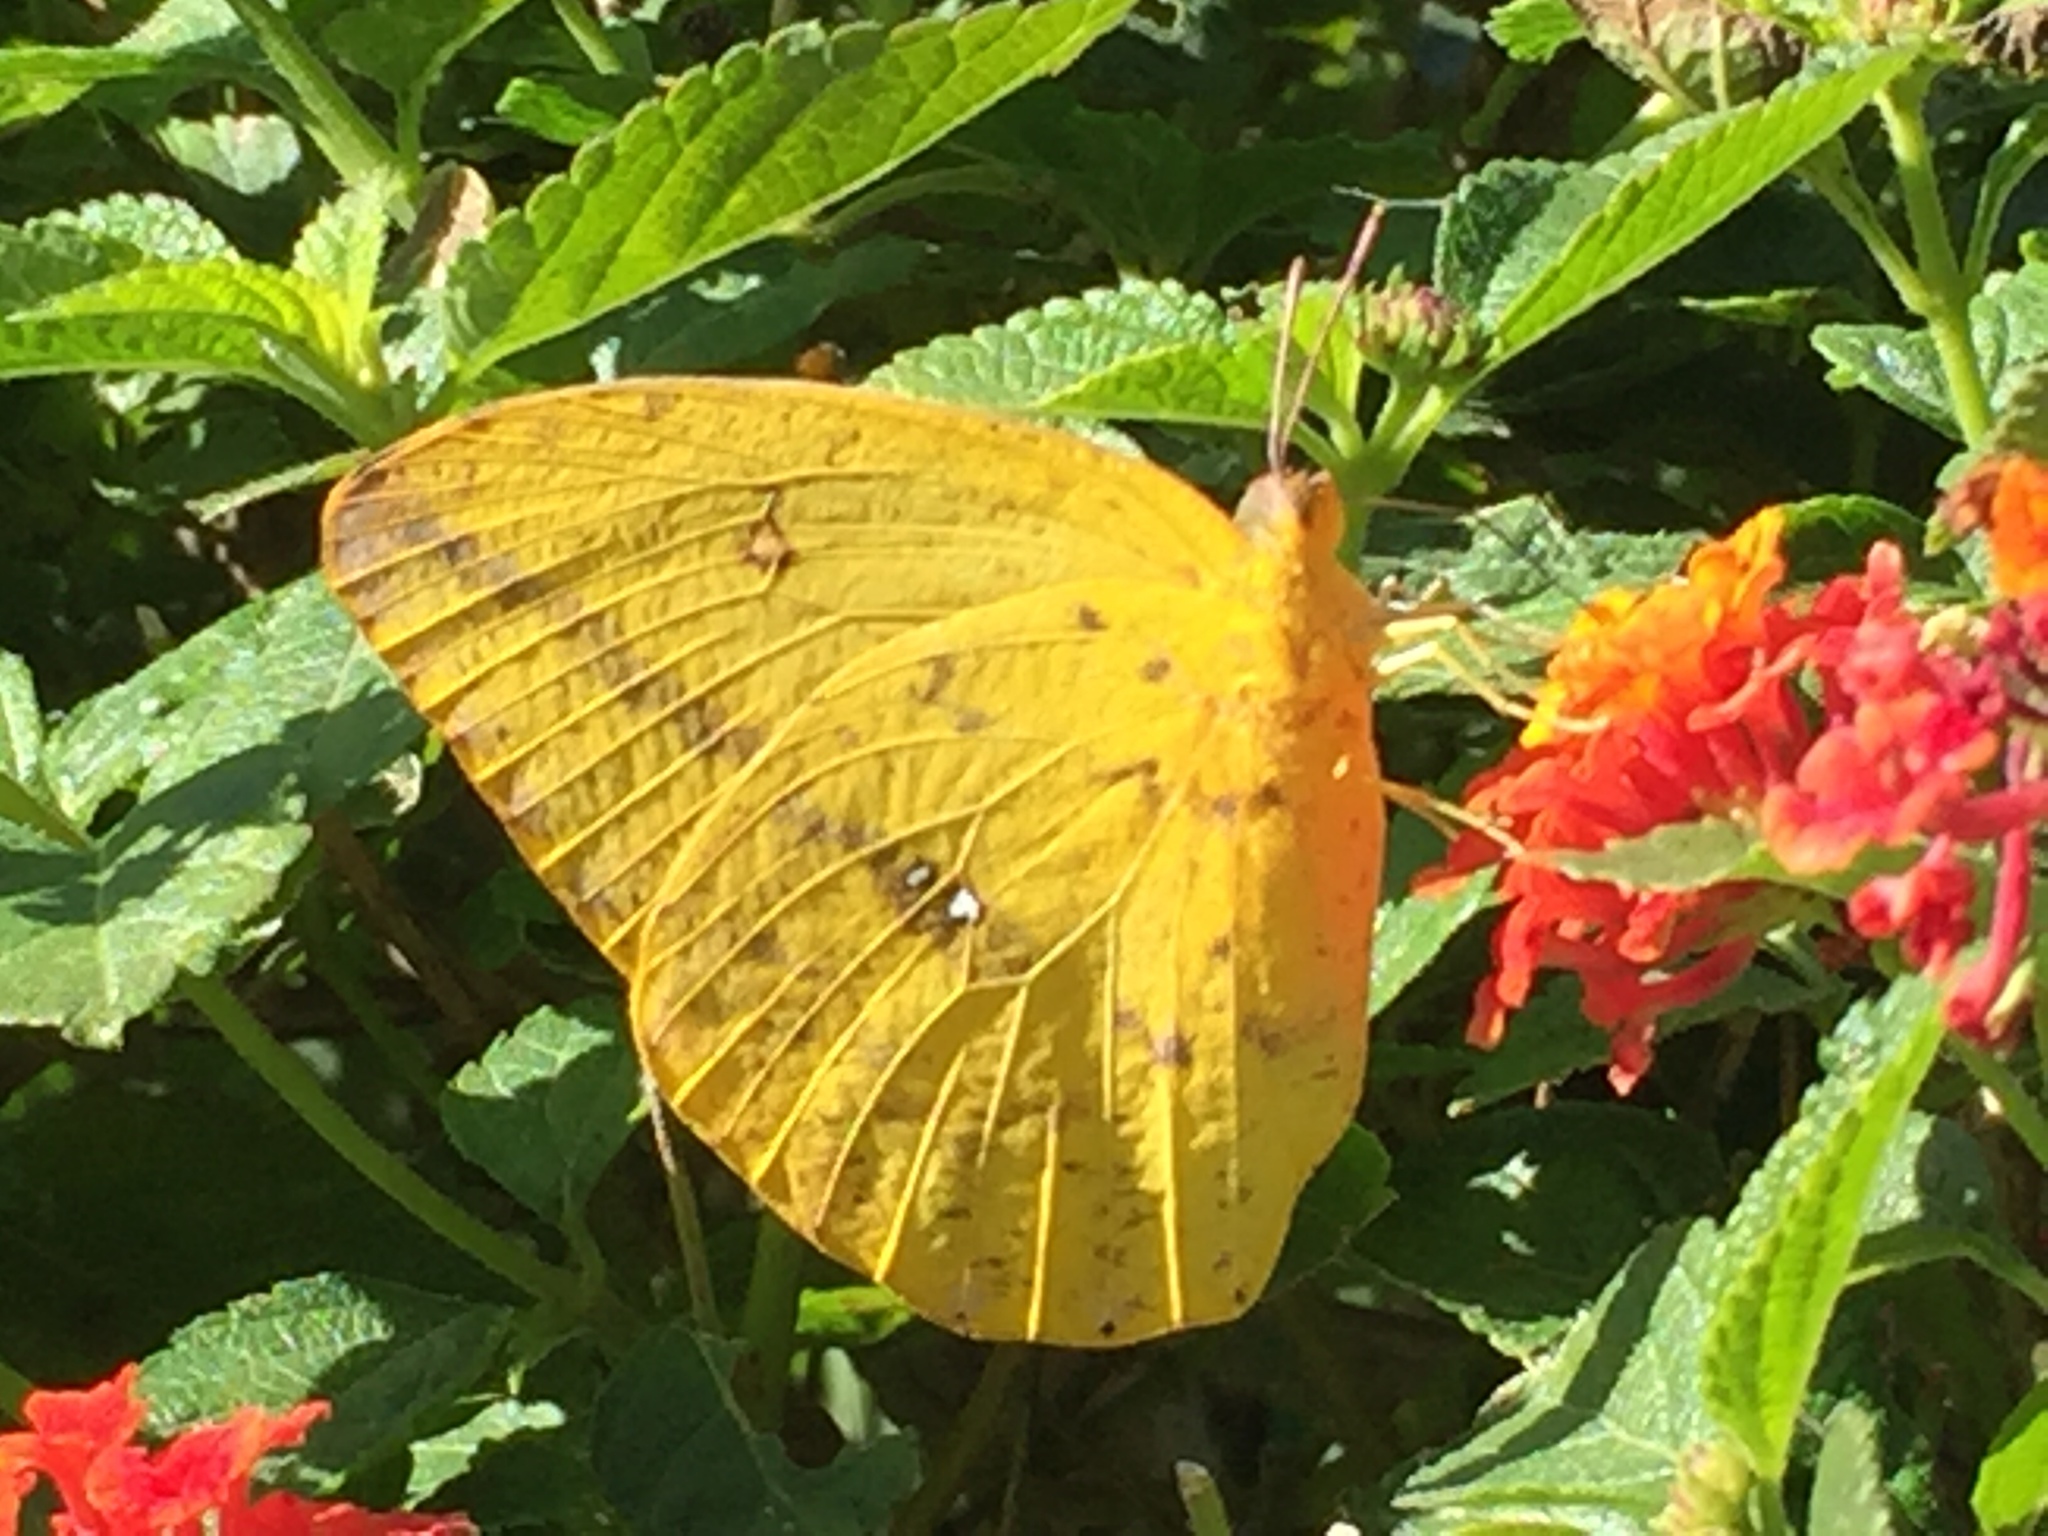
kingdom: Animalia
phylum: Arthropoda
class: Insecta
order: Lepidoptera
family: Pieridae
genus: Phoebis
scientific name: Phoebis agarithe
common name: Large orange sulphur
